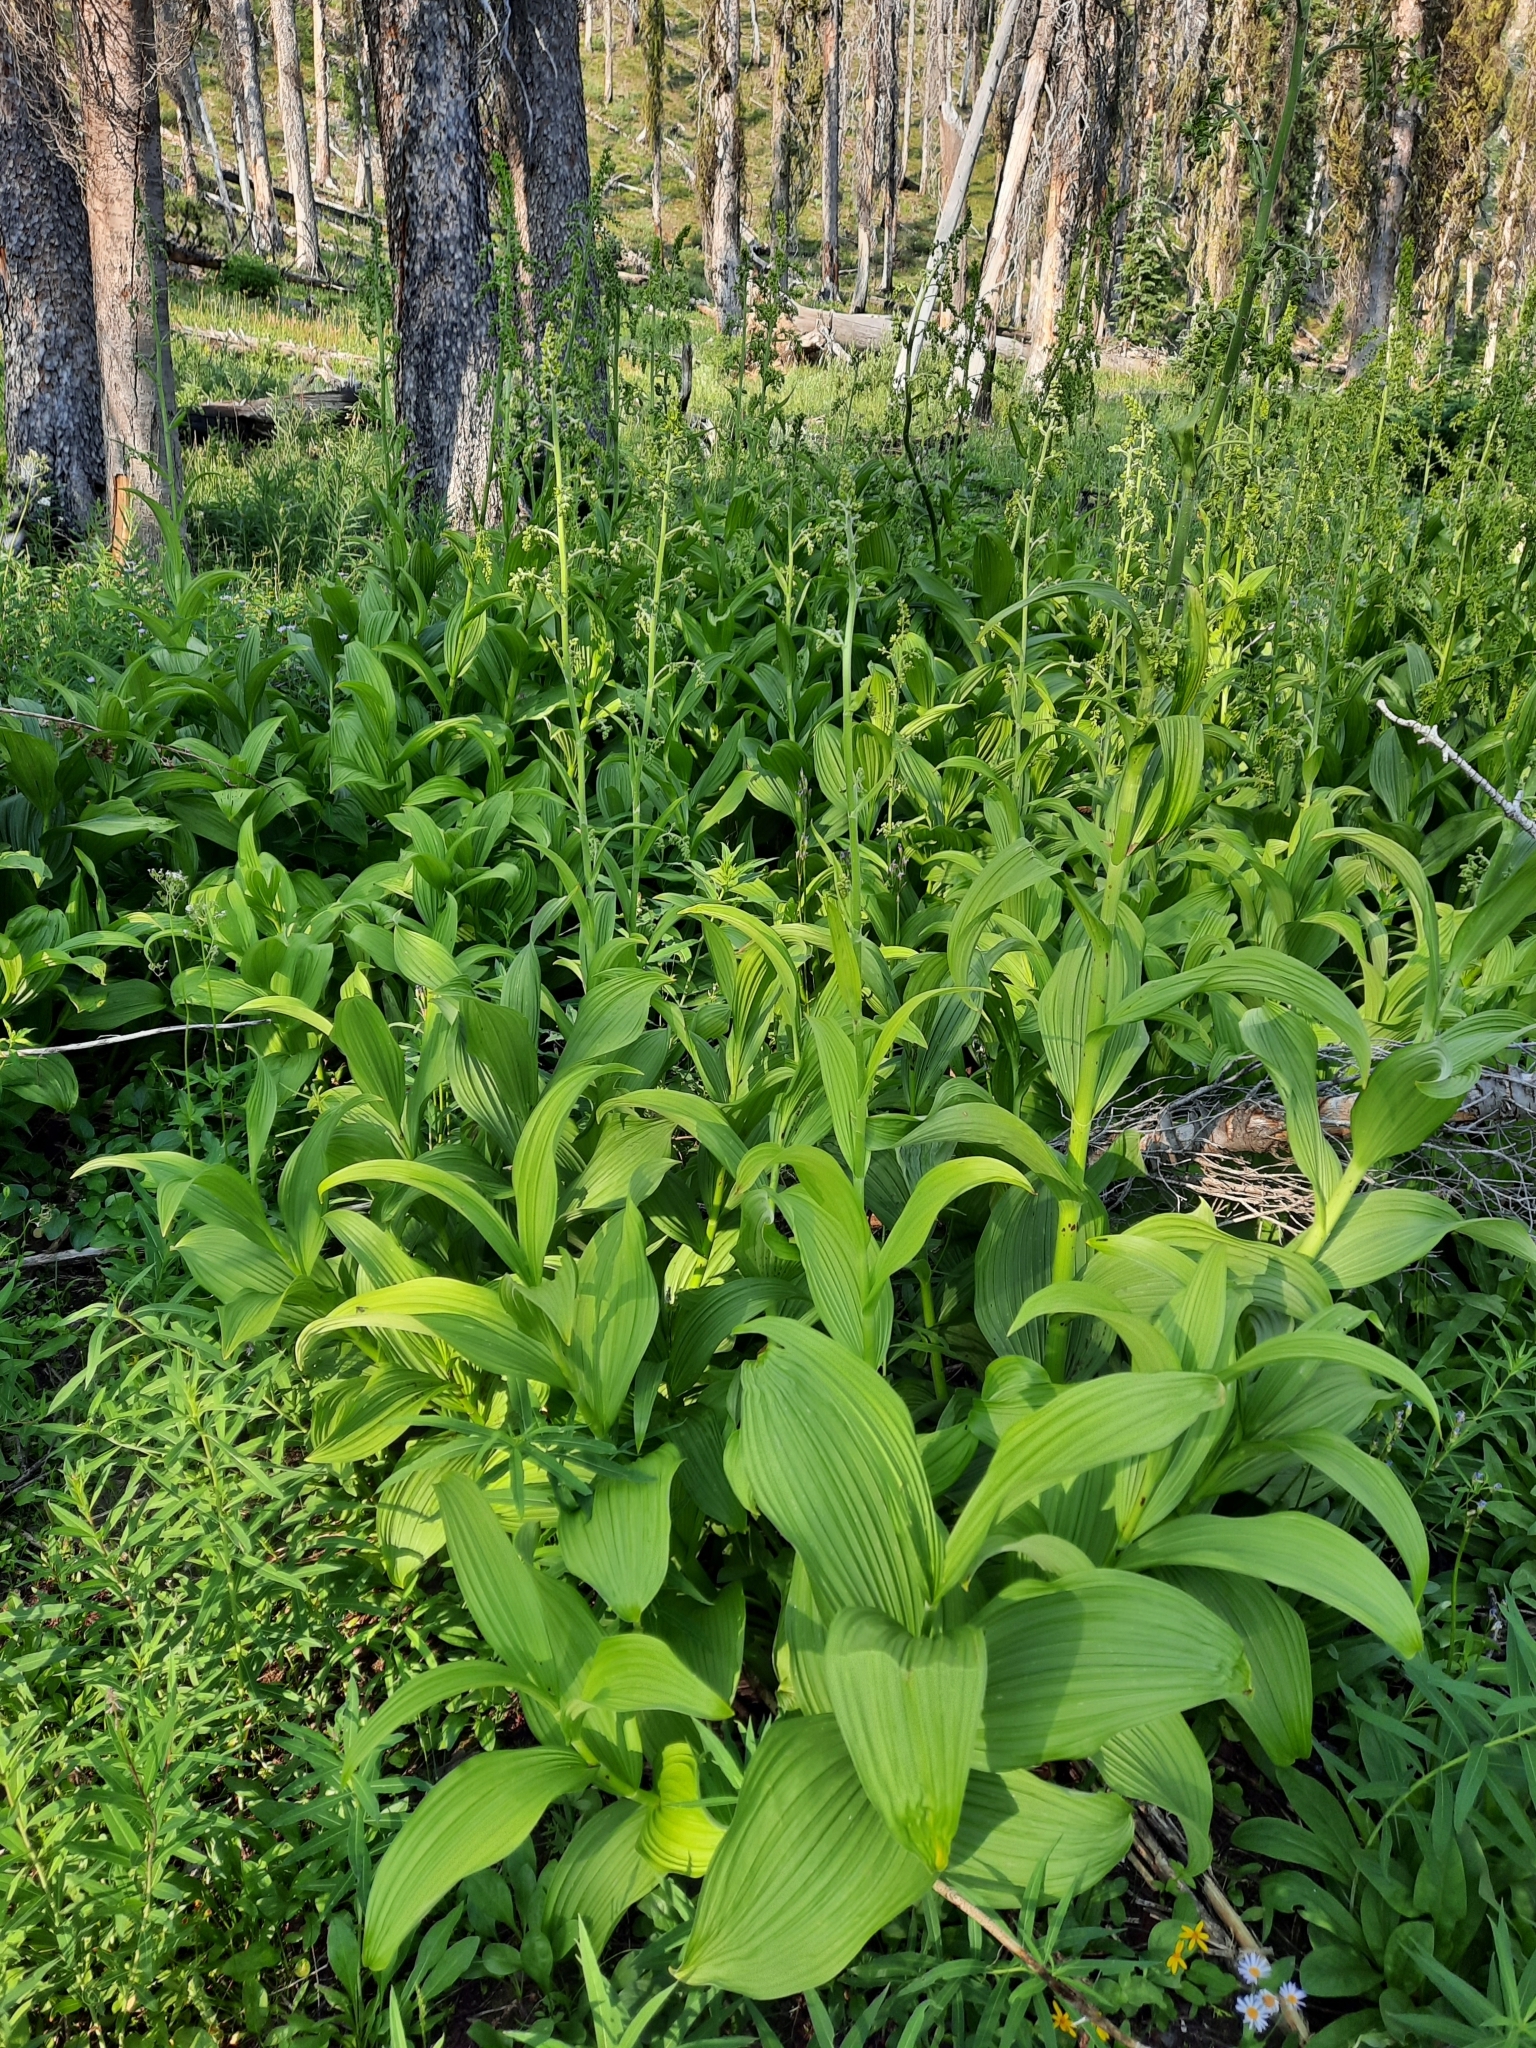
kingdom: Plantae
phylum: Tracheophyta
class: Liliopsida
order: Liliales
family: Melanthiaceae
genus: Veratrum
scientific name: Veratrum viride
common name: American false hellebore
